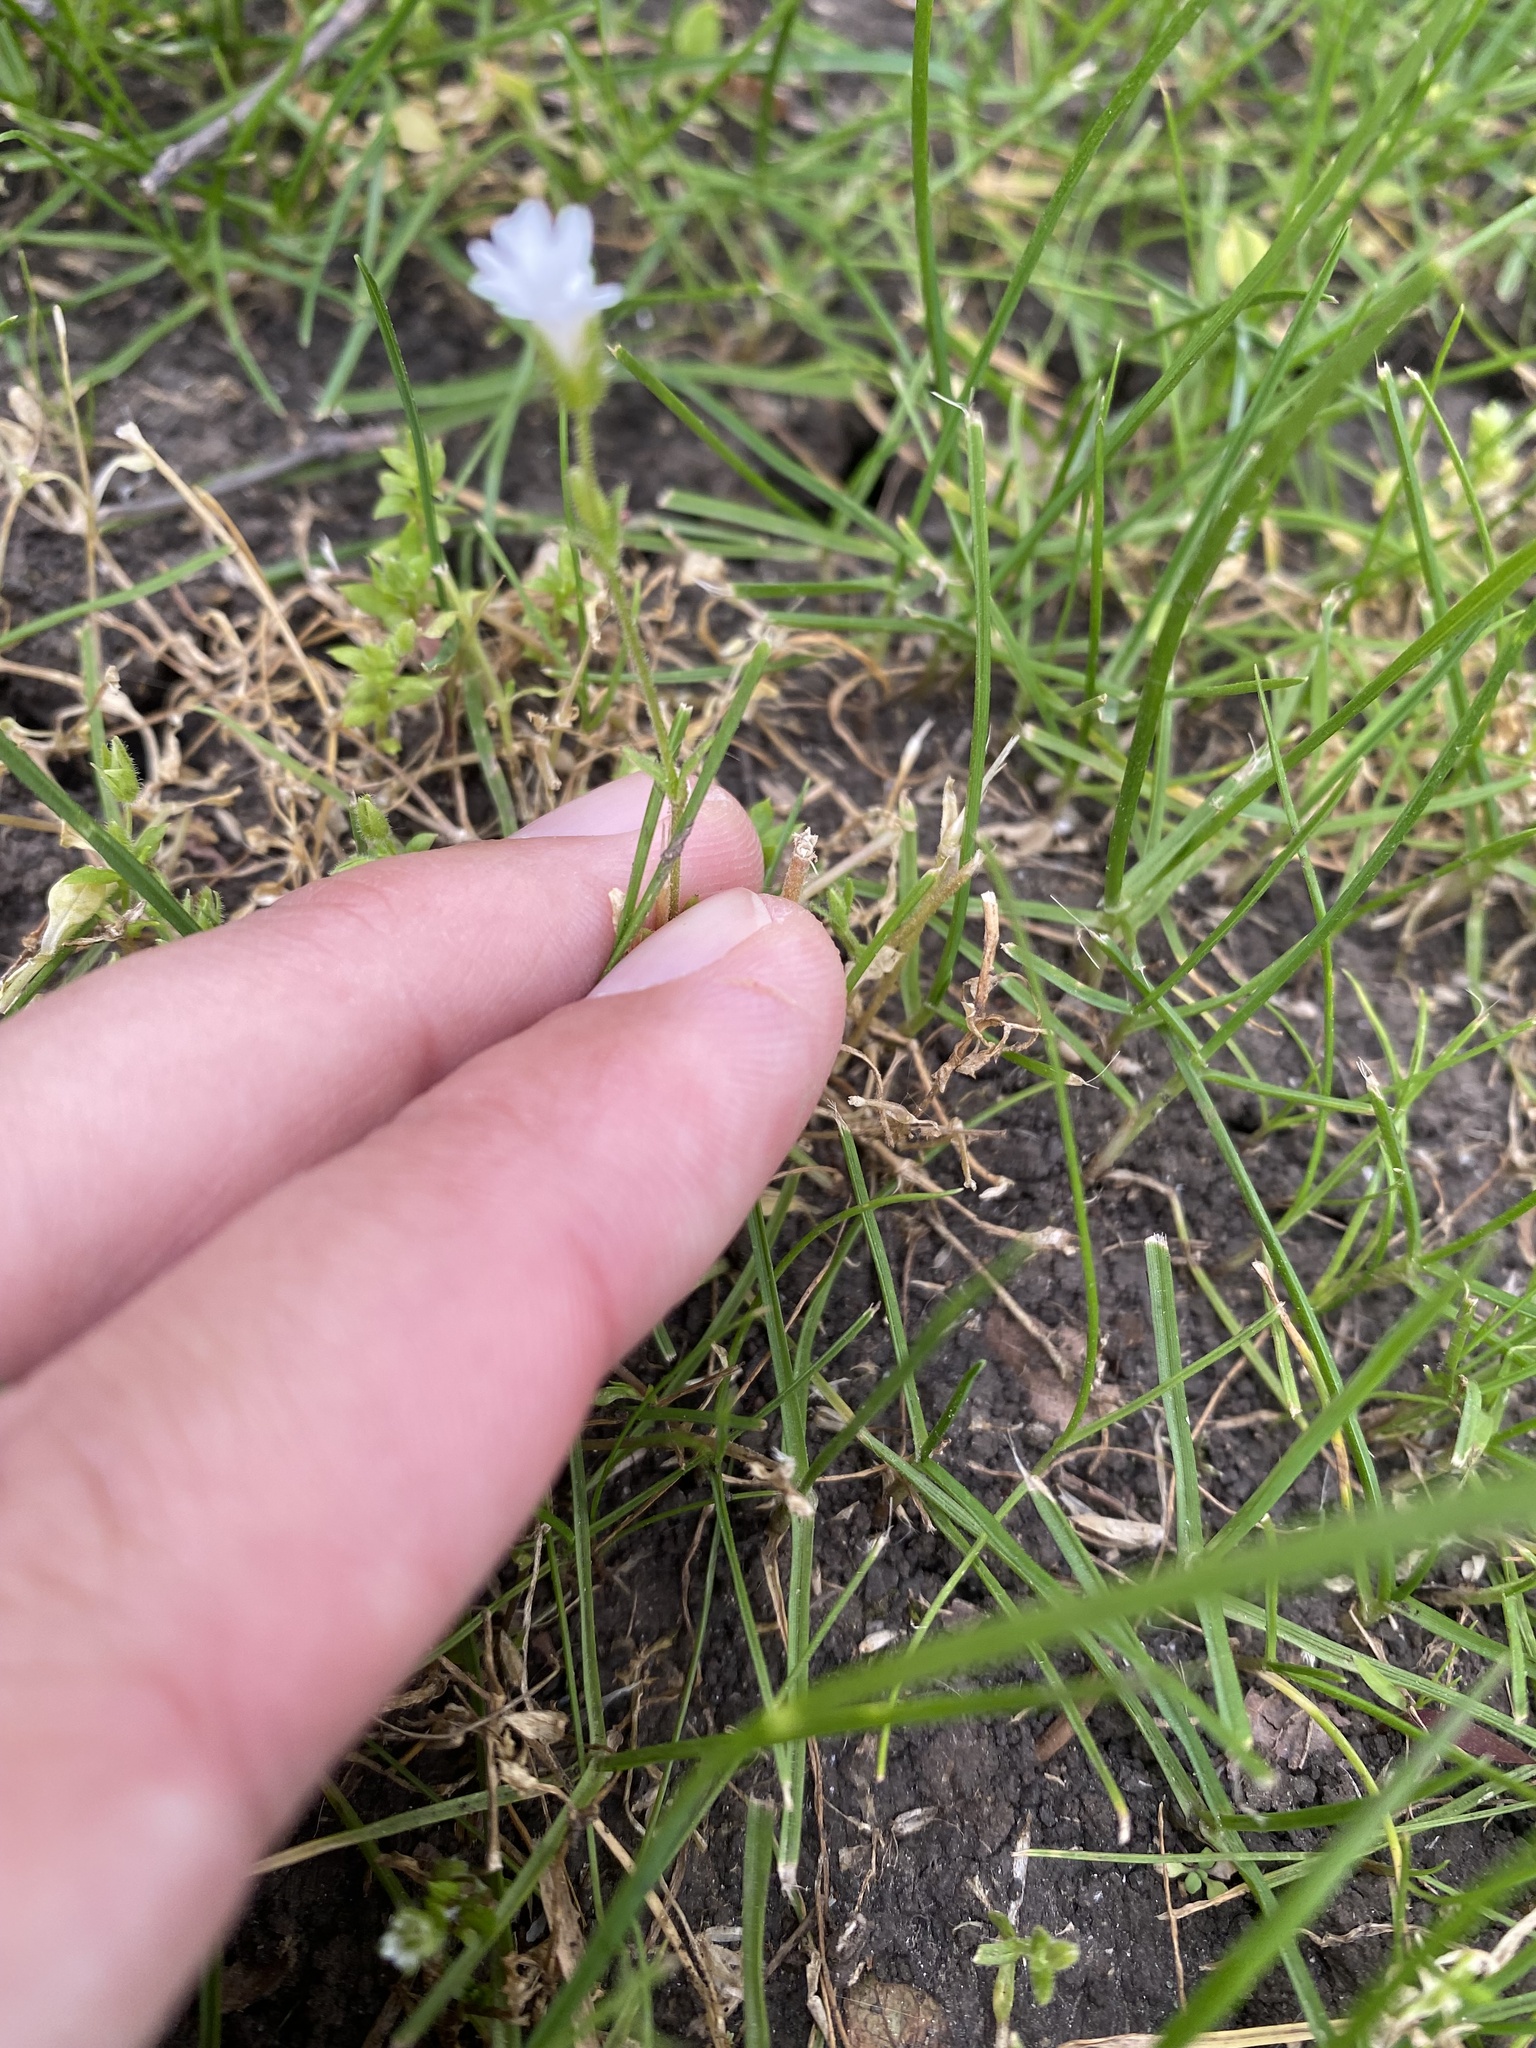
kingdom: Plantae
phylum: Tracheophyta
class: Magnoliopsida
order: Caryophyllales
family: Caryophyllaceae
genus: Dichodon
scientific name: Dichodon viscidum
